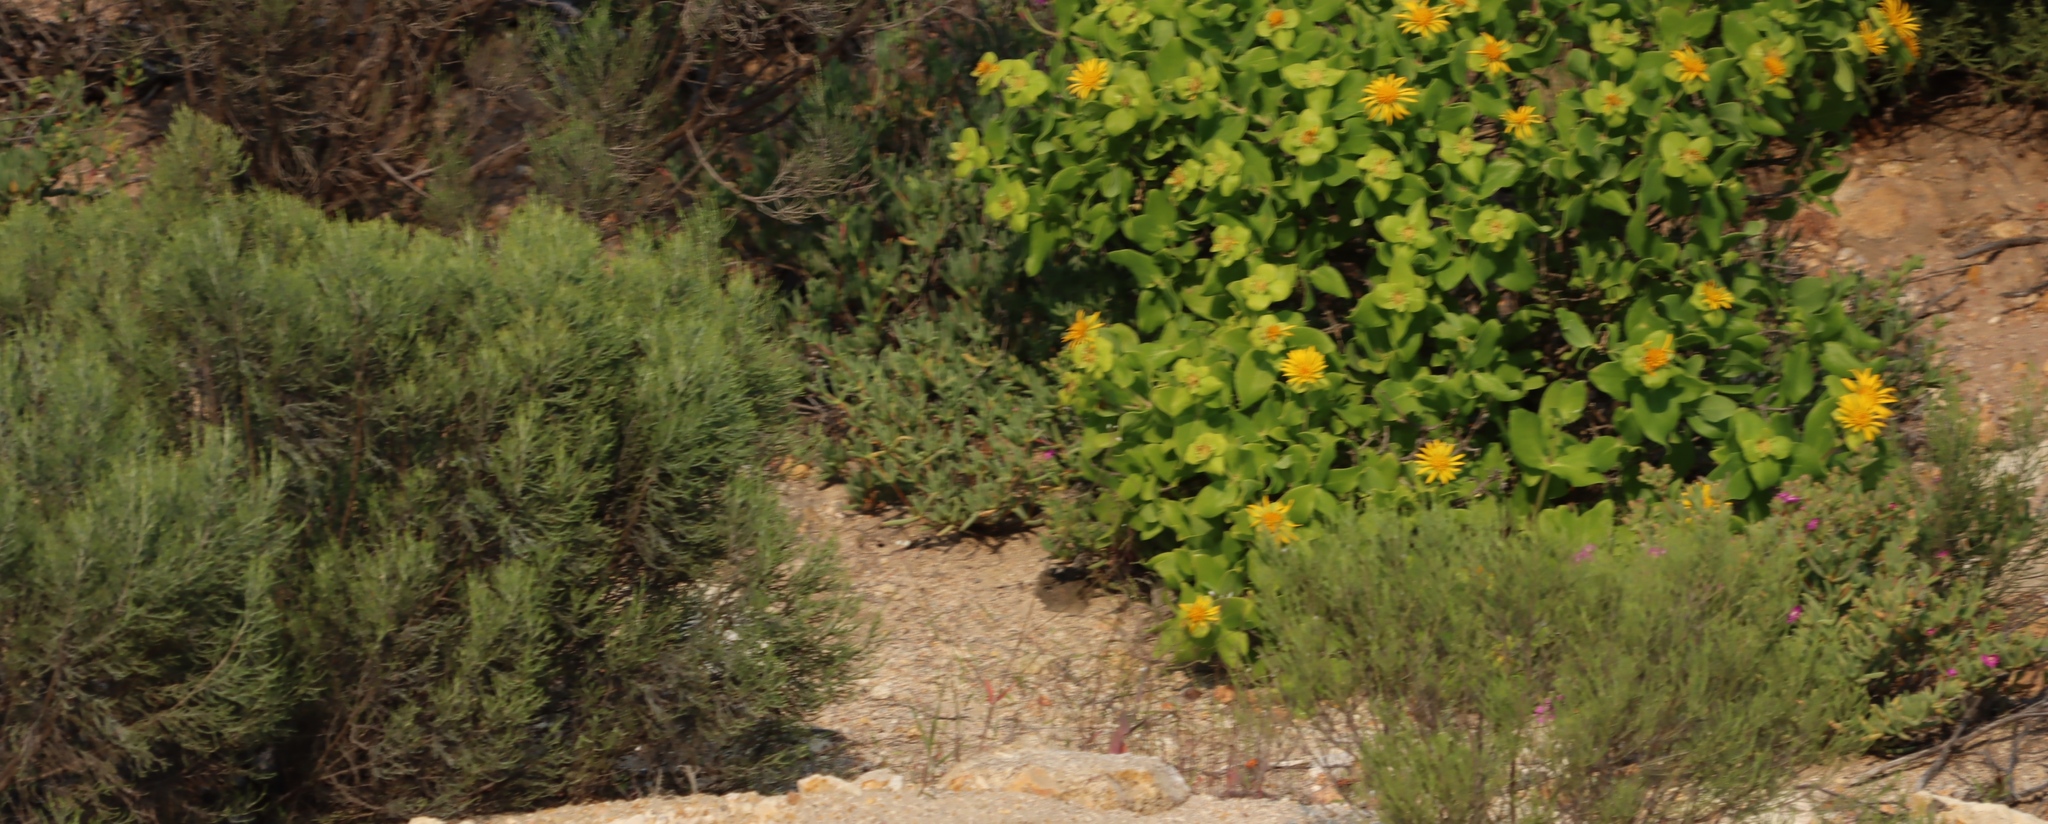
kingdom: Plantae
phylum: Tracheophyta
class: Magnoliopsida
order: Asterales
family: Asteraceae
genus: Dicerothamnus
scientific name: Dicerothamnus rhinocerotis
